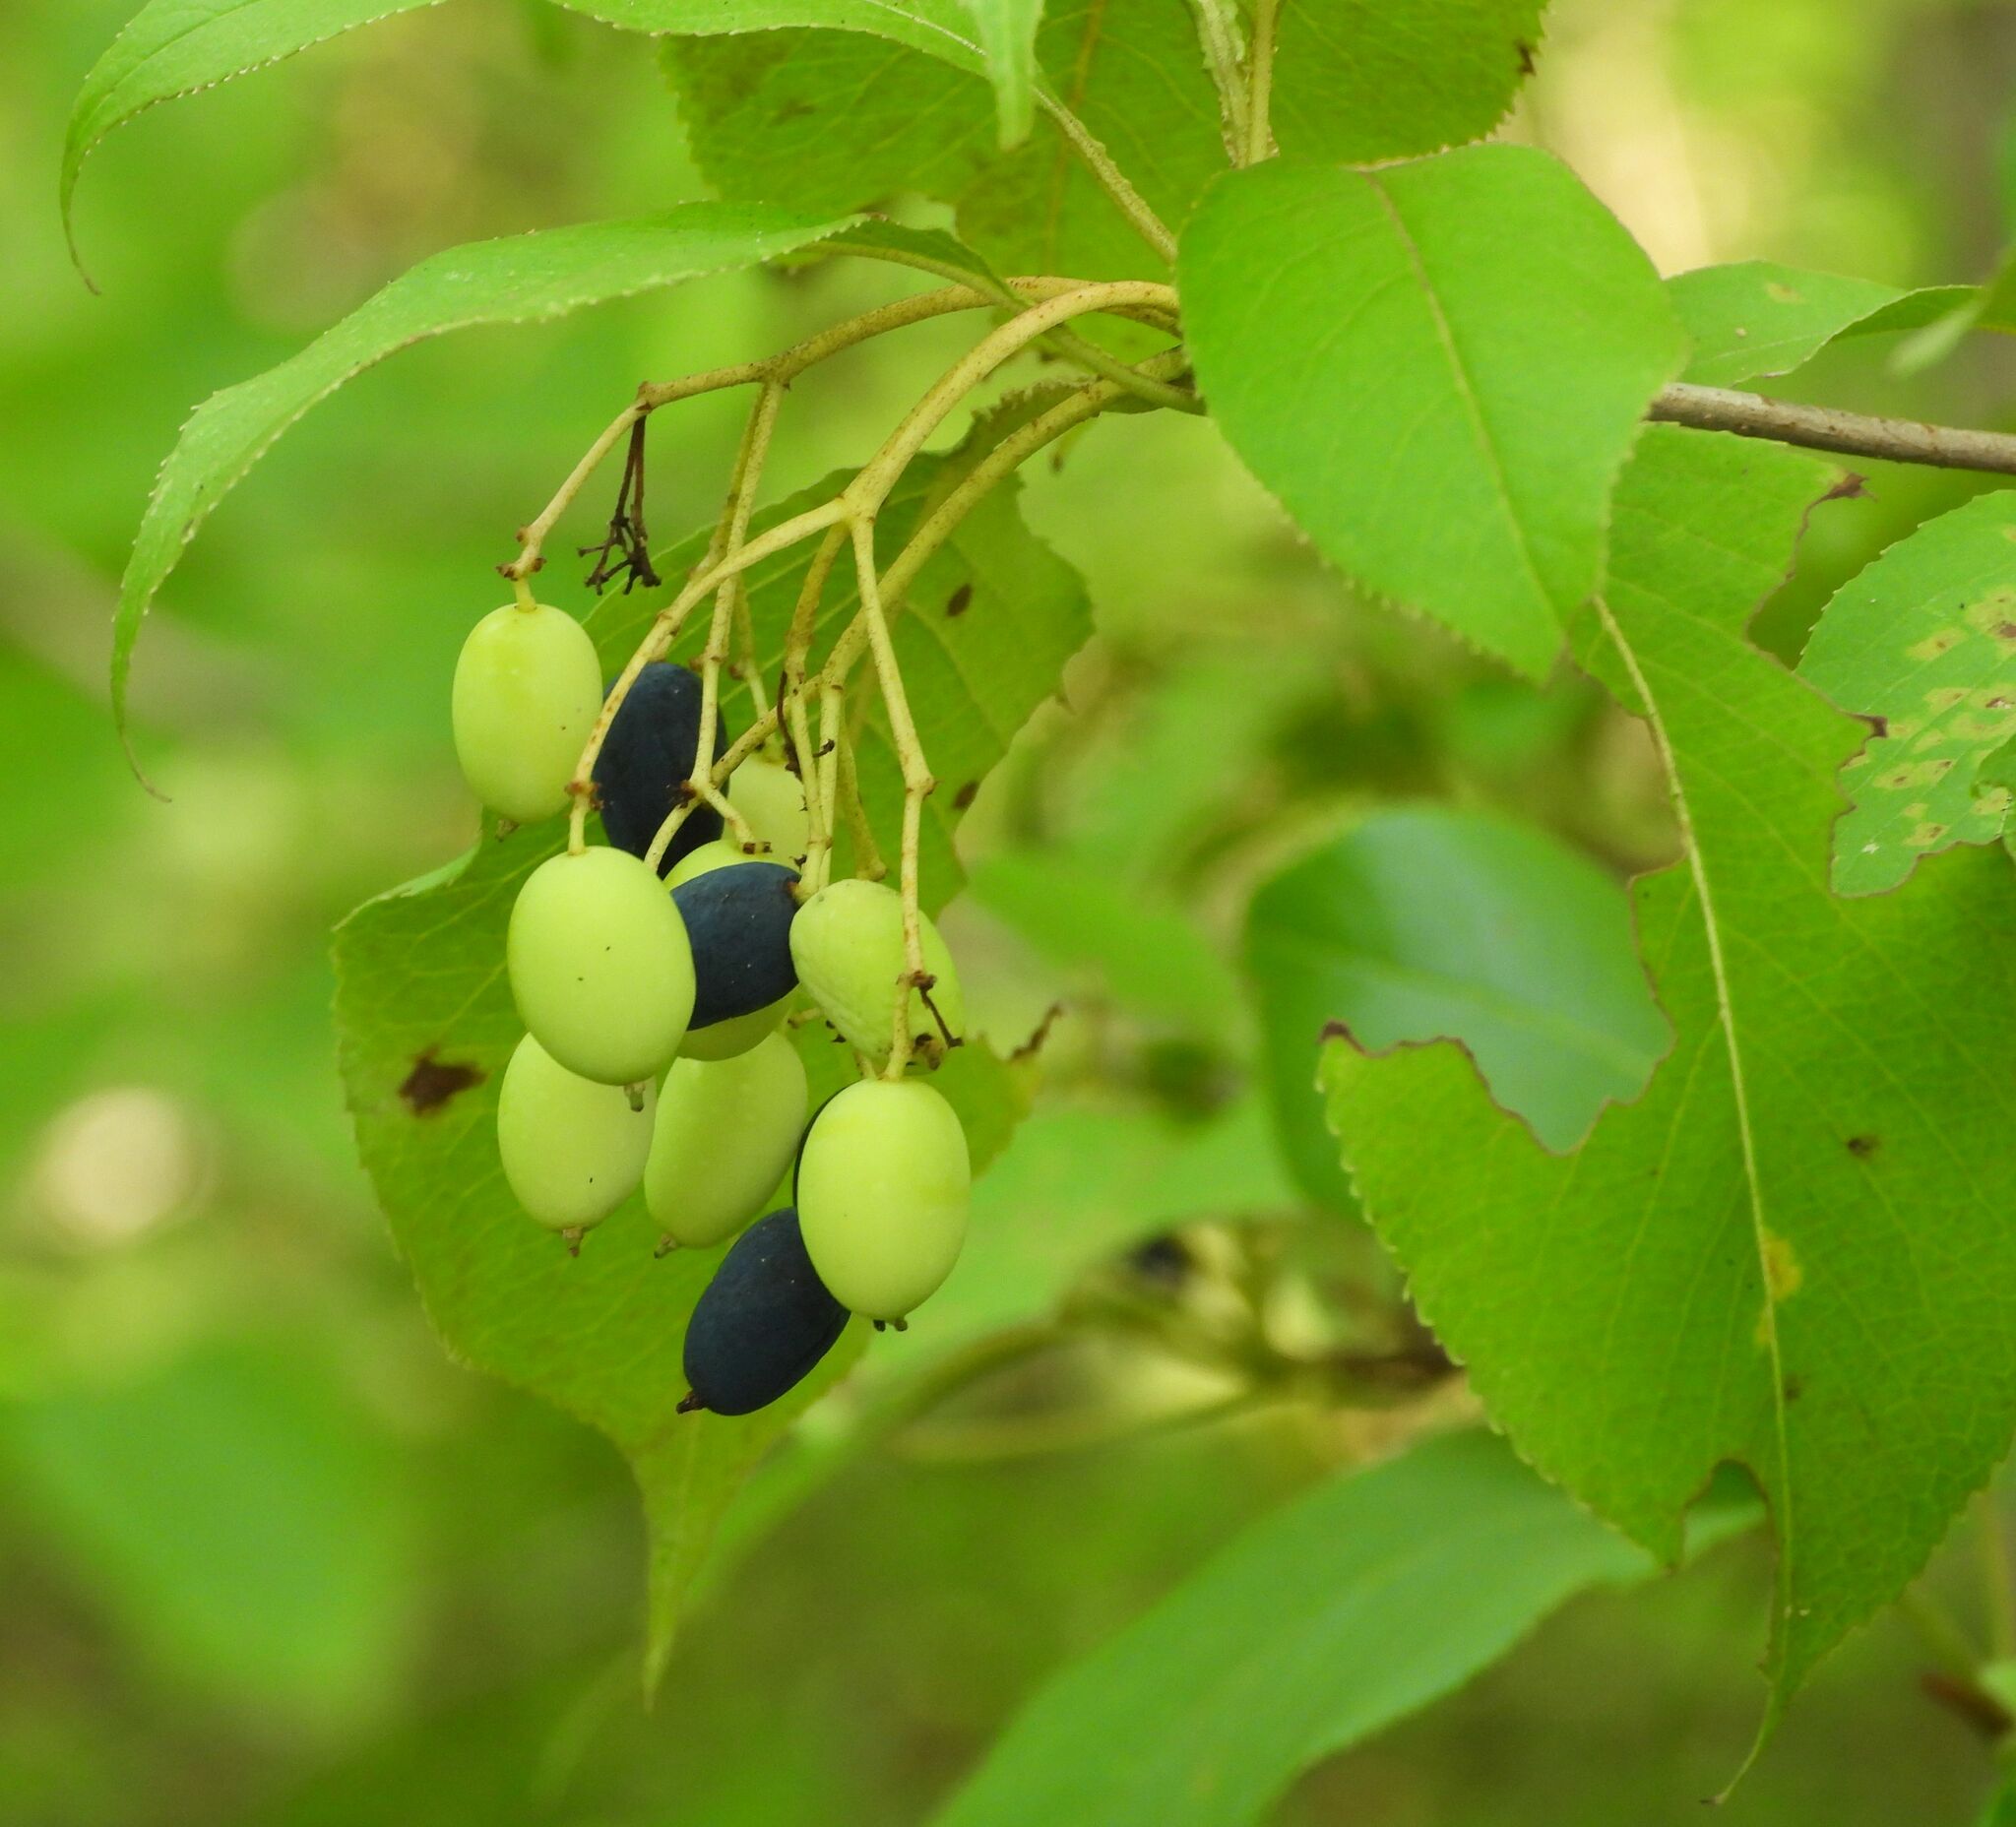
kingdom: Plantae
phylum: Tracheophyta
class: Magnoliopsida
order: Dipsacales
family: Viburnaceae
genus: Viburnum
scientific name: Viburnum lentago
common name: Black haw
